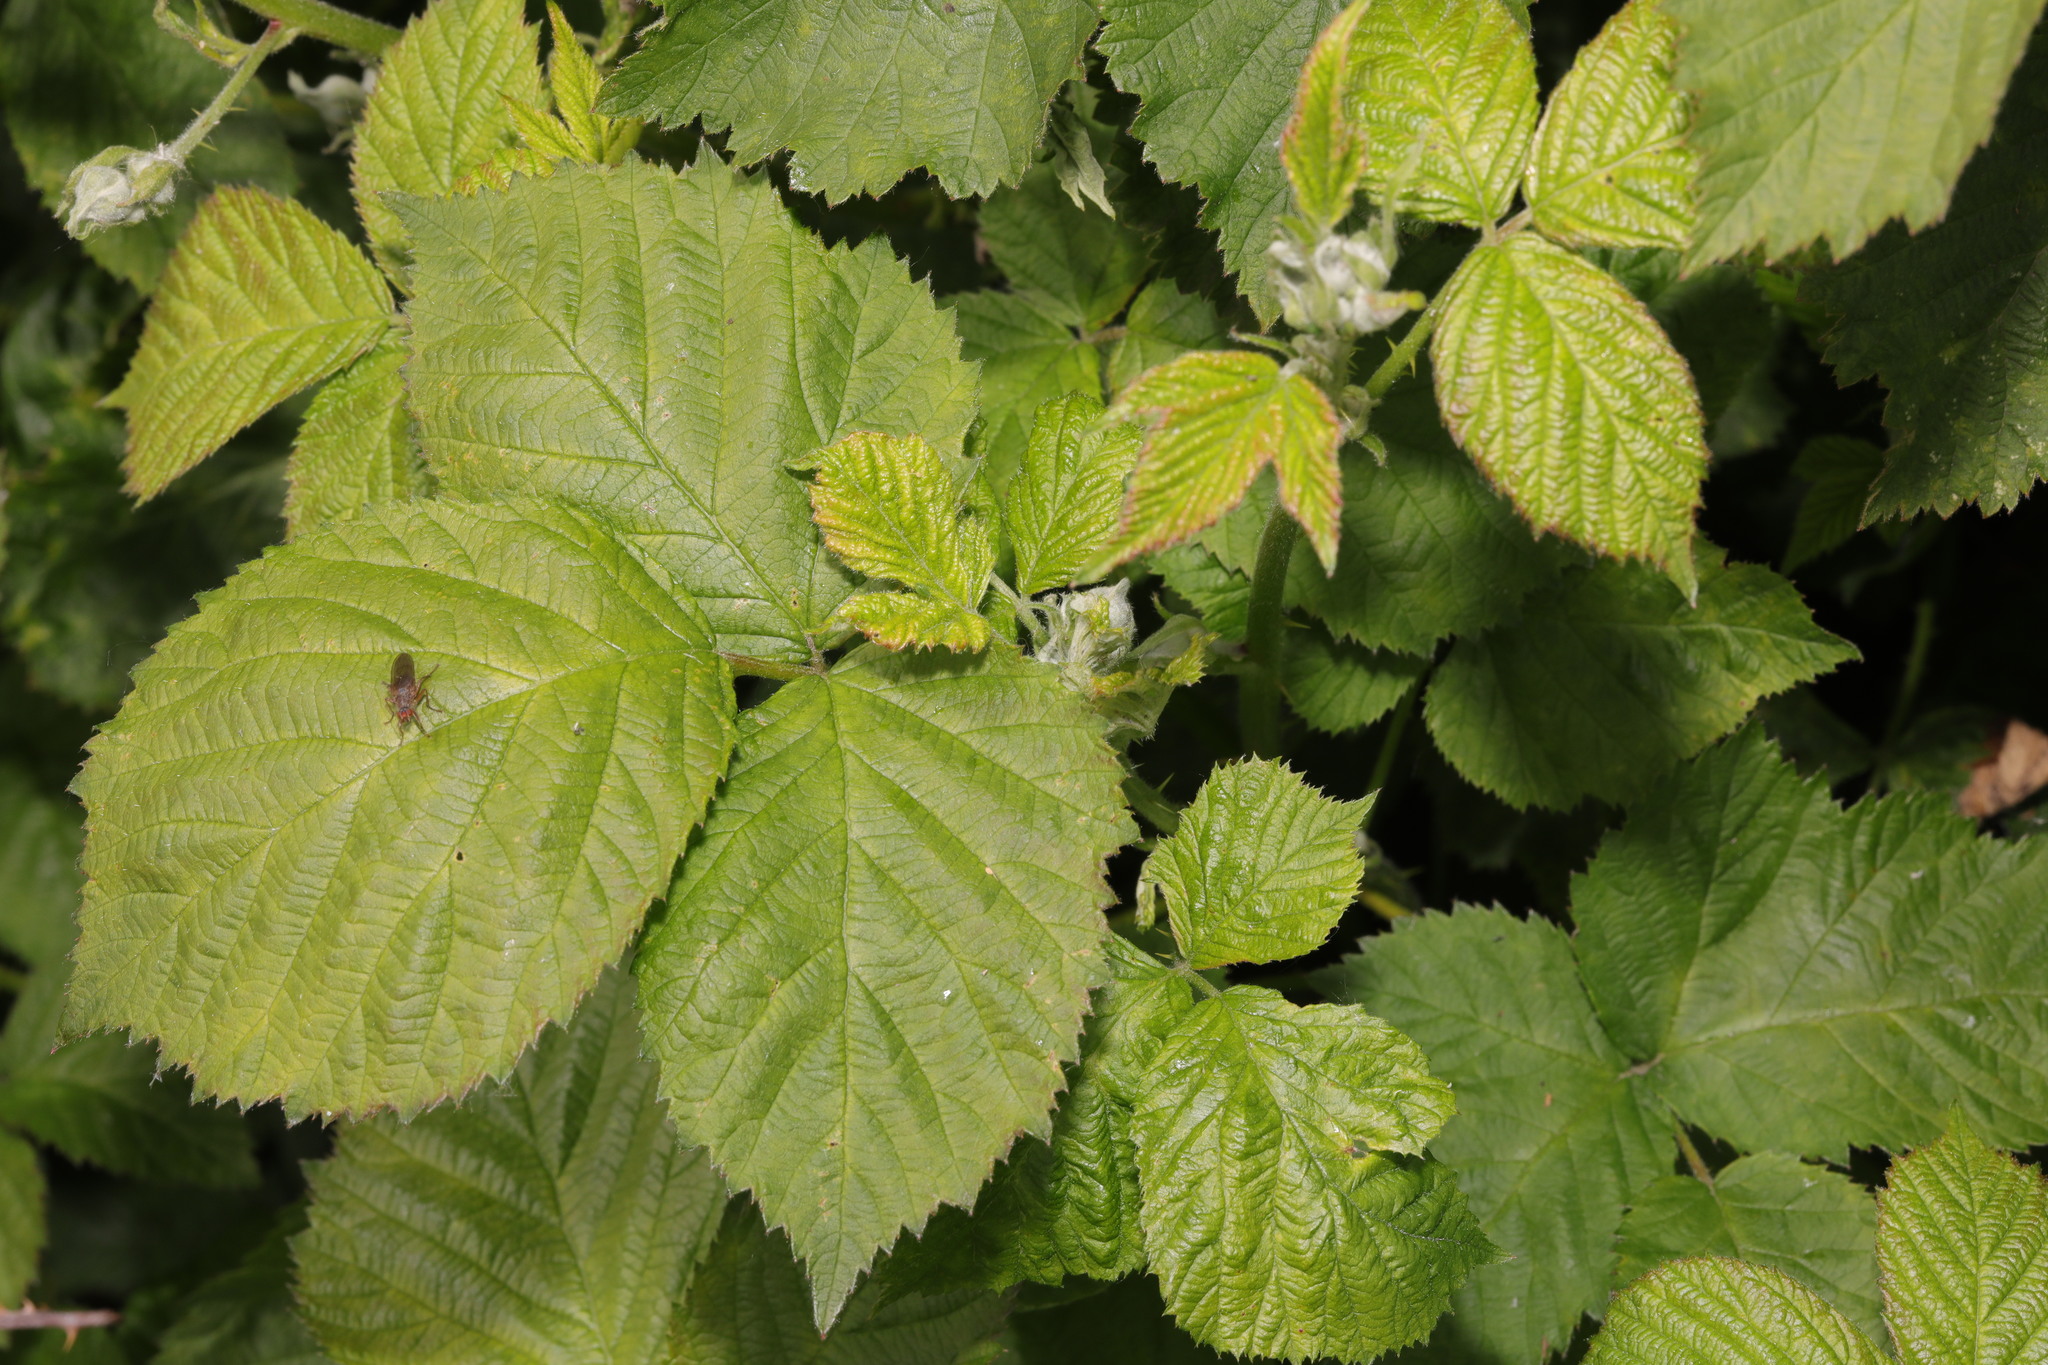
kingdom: Plantae
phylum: Tracheophyta
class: Magnoliopsida
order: Rosales
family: Rosaceae
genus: Rubus
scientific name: Rubus armeniacus
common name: Himalayan blackberry
